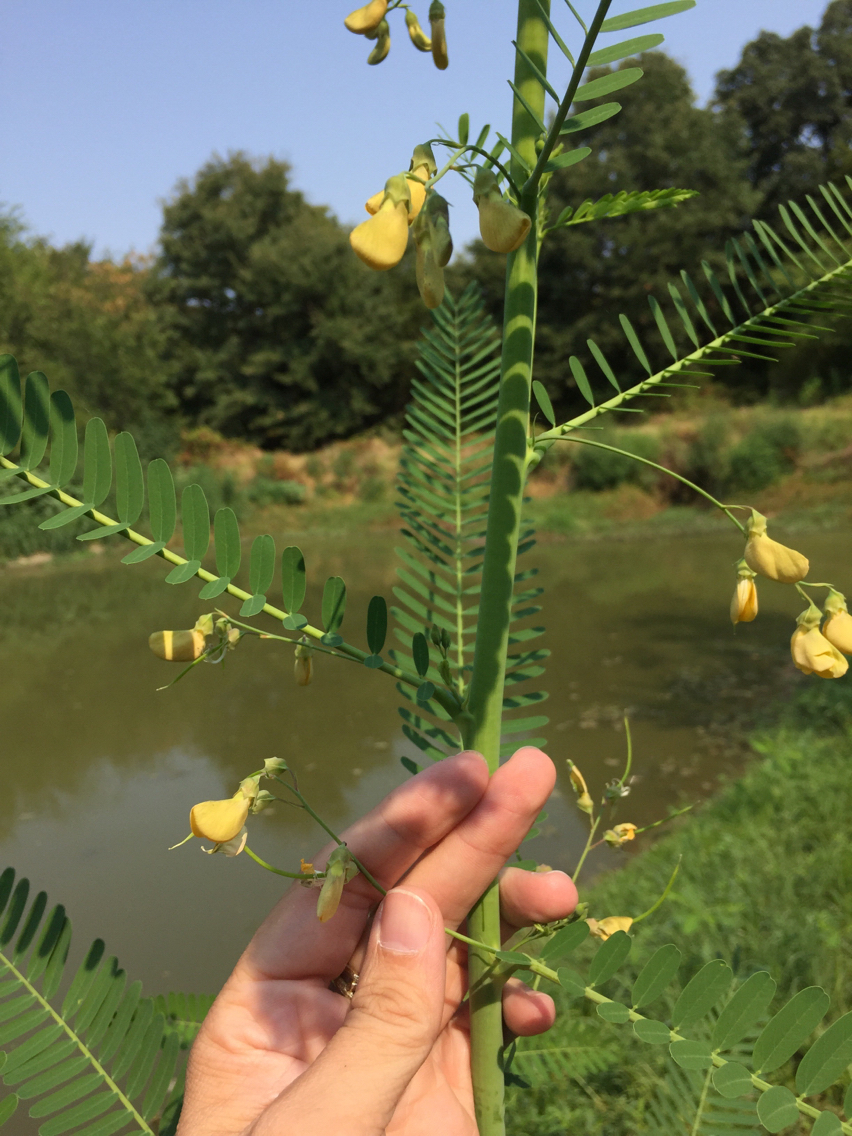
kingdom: Plantae
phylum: Tracheophyta
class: Magnoliopsida
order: Fabales
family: Fabaceae
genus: Sesbania
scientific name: Sesbania herbacea
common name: Bigpod sesbania
